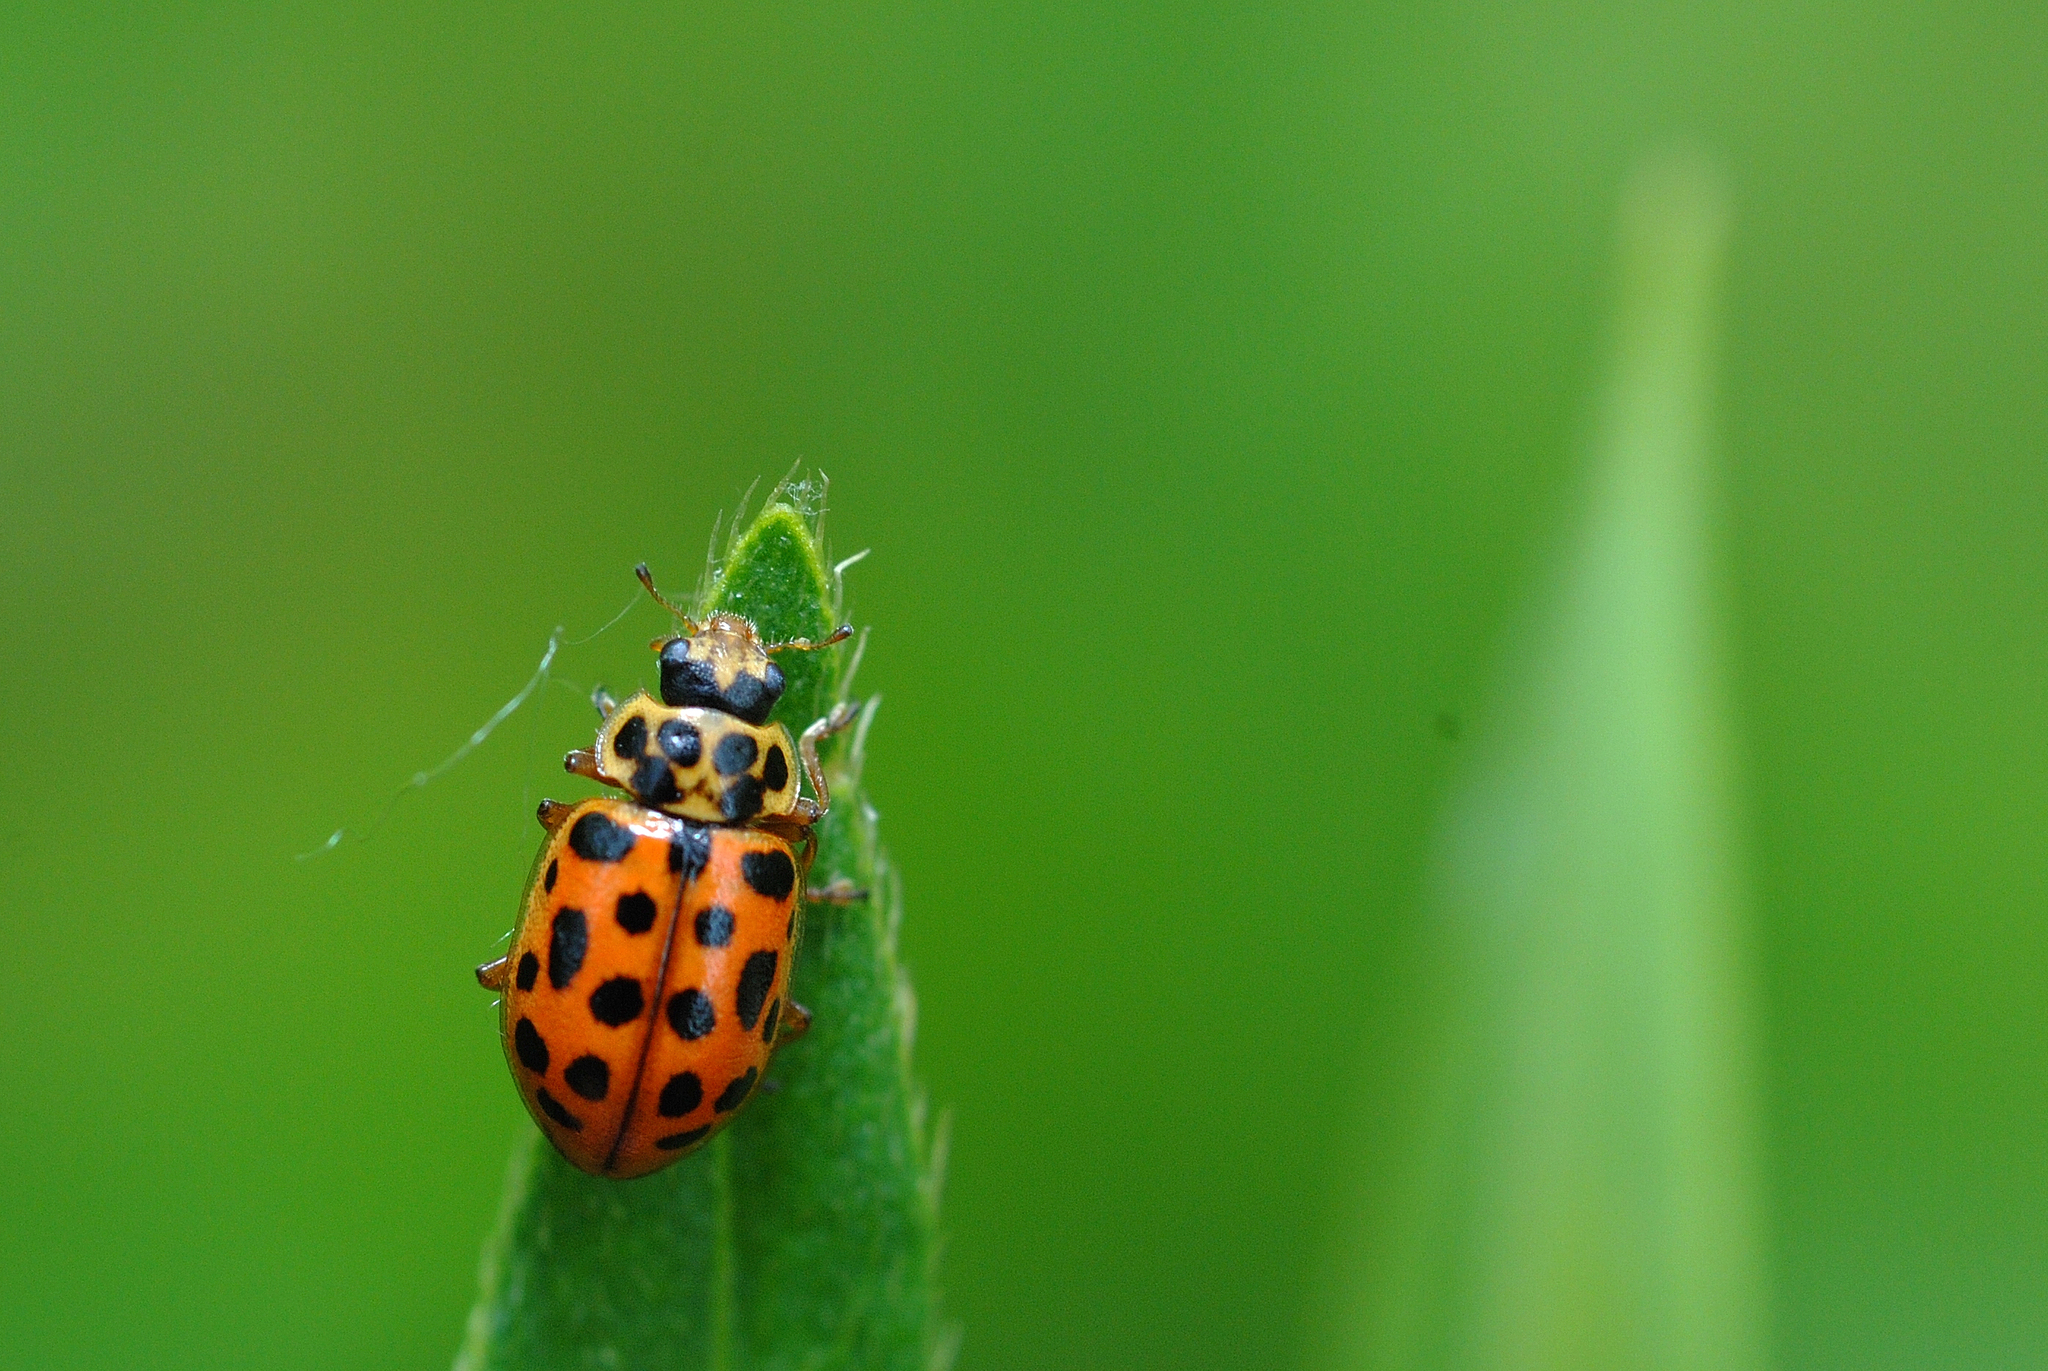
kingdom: Animalia
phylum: Arthropoda
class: Insecta
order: Coleoptera
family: Coccinellidae
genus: Anisosticta
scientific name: Anisosticta novemdecimpunctata
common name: Water ladybird
